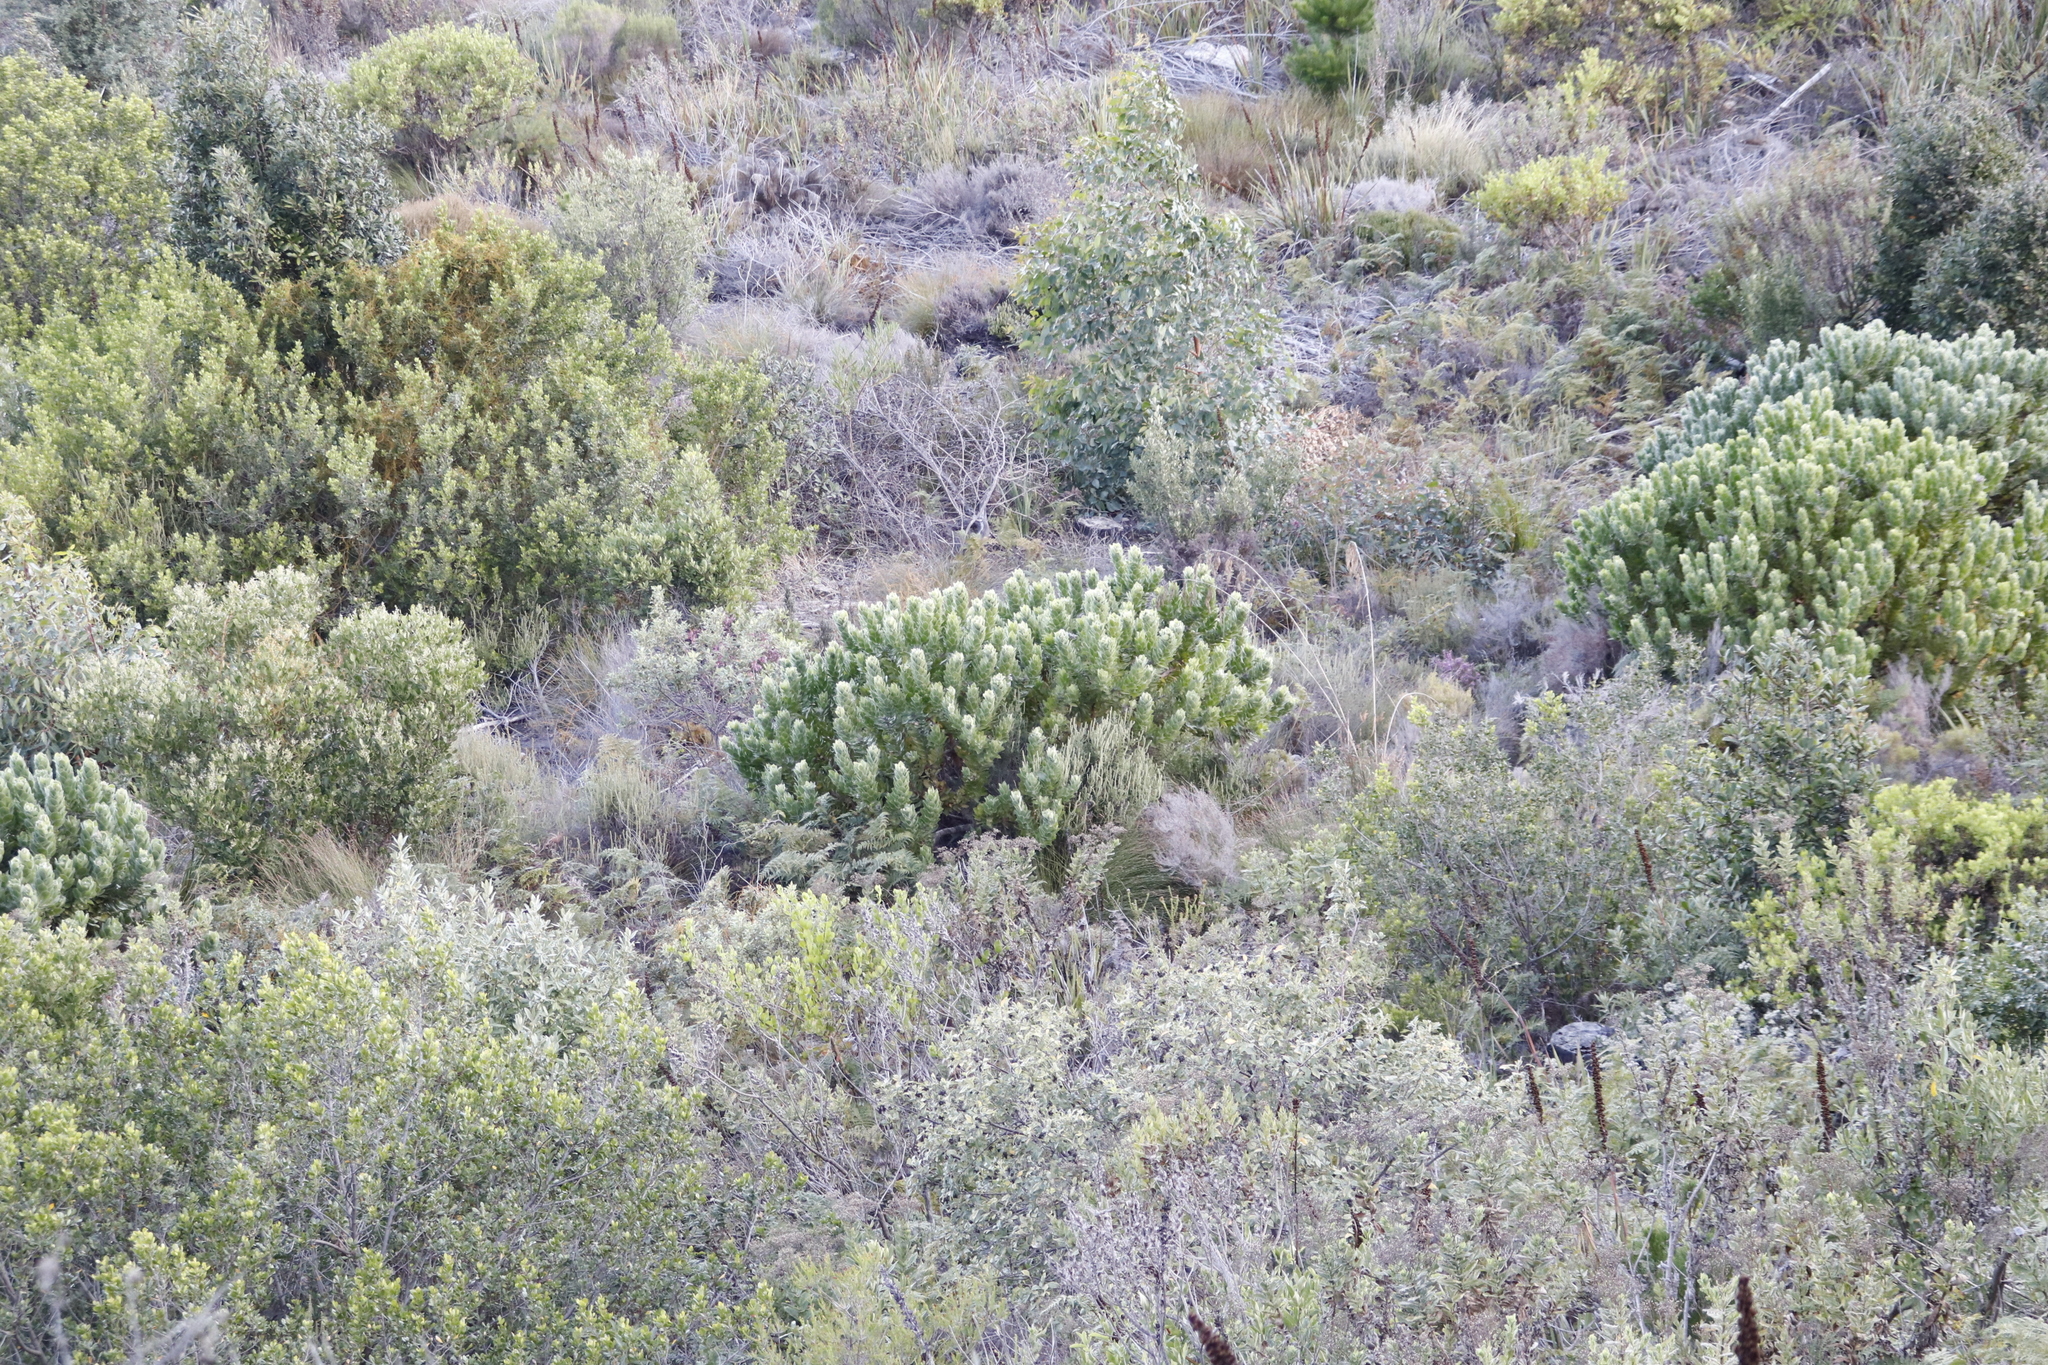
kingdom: Plantae
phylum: Tracheophyta
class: Magnoliopsida
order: Proteales
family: Proteaceae
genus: Leucospermum
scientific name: Leucospermum conocarpodendron
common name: Tree pincushion
